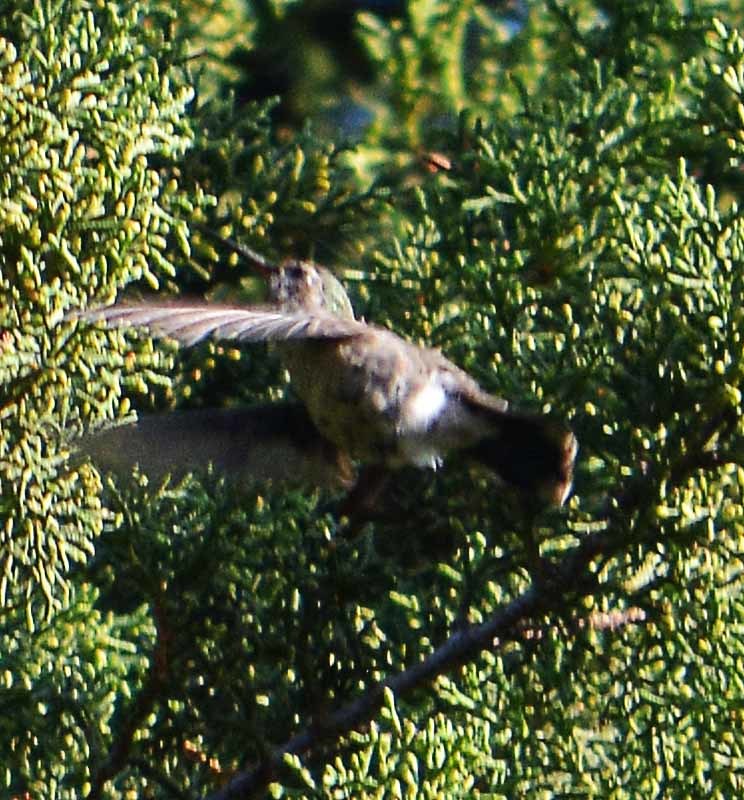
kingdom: Animalia
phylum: Chordata
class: Aves
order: Apodiformes
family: Trochilidae
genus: Cynanthus
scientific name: Cynanthus latirostris
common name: Broad-billed hummingbird
